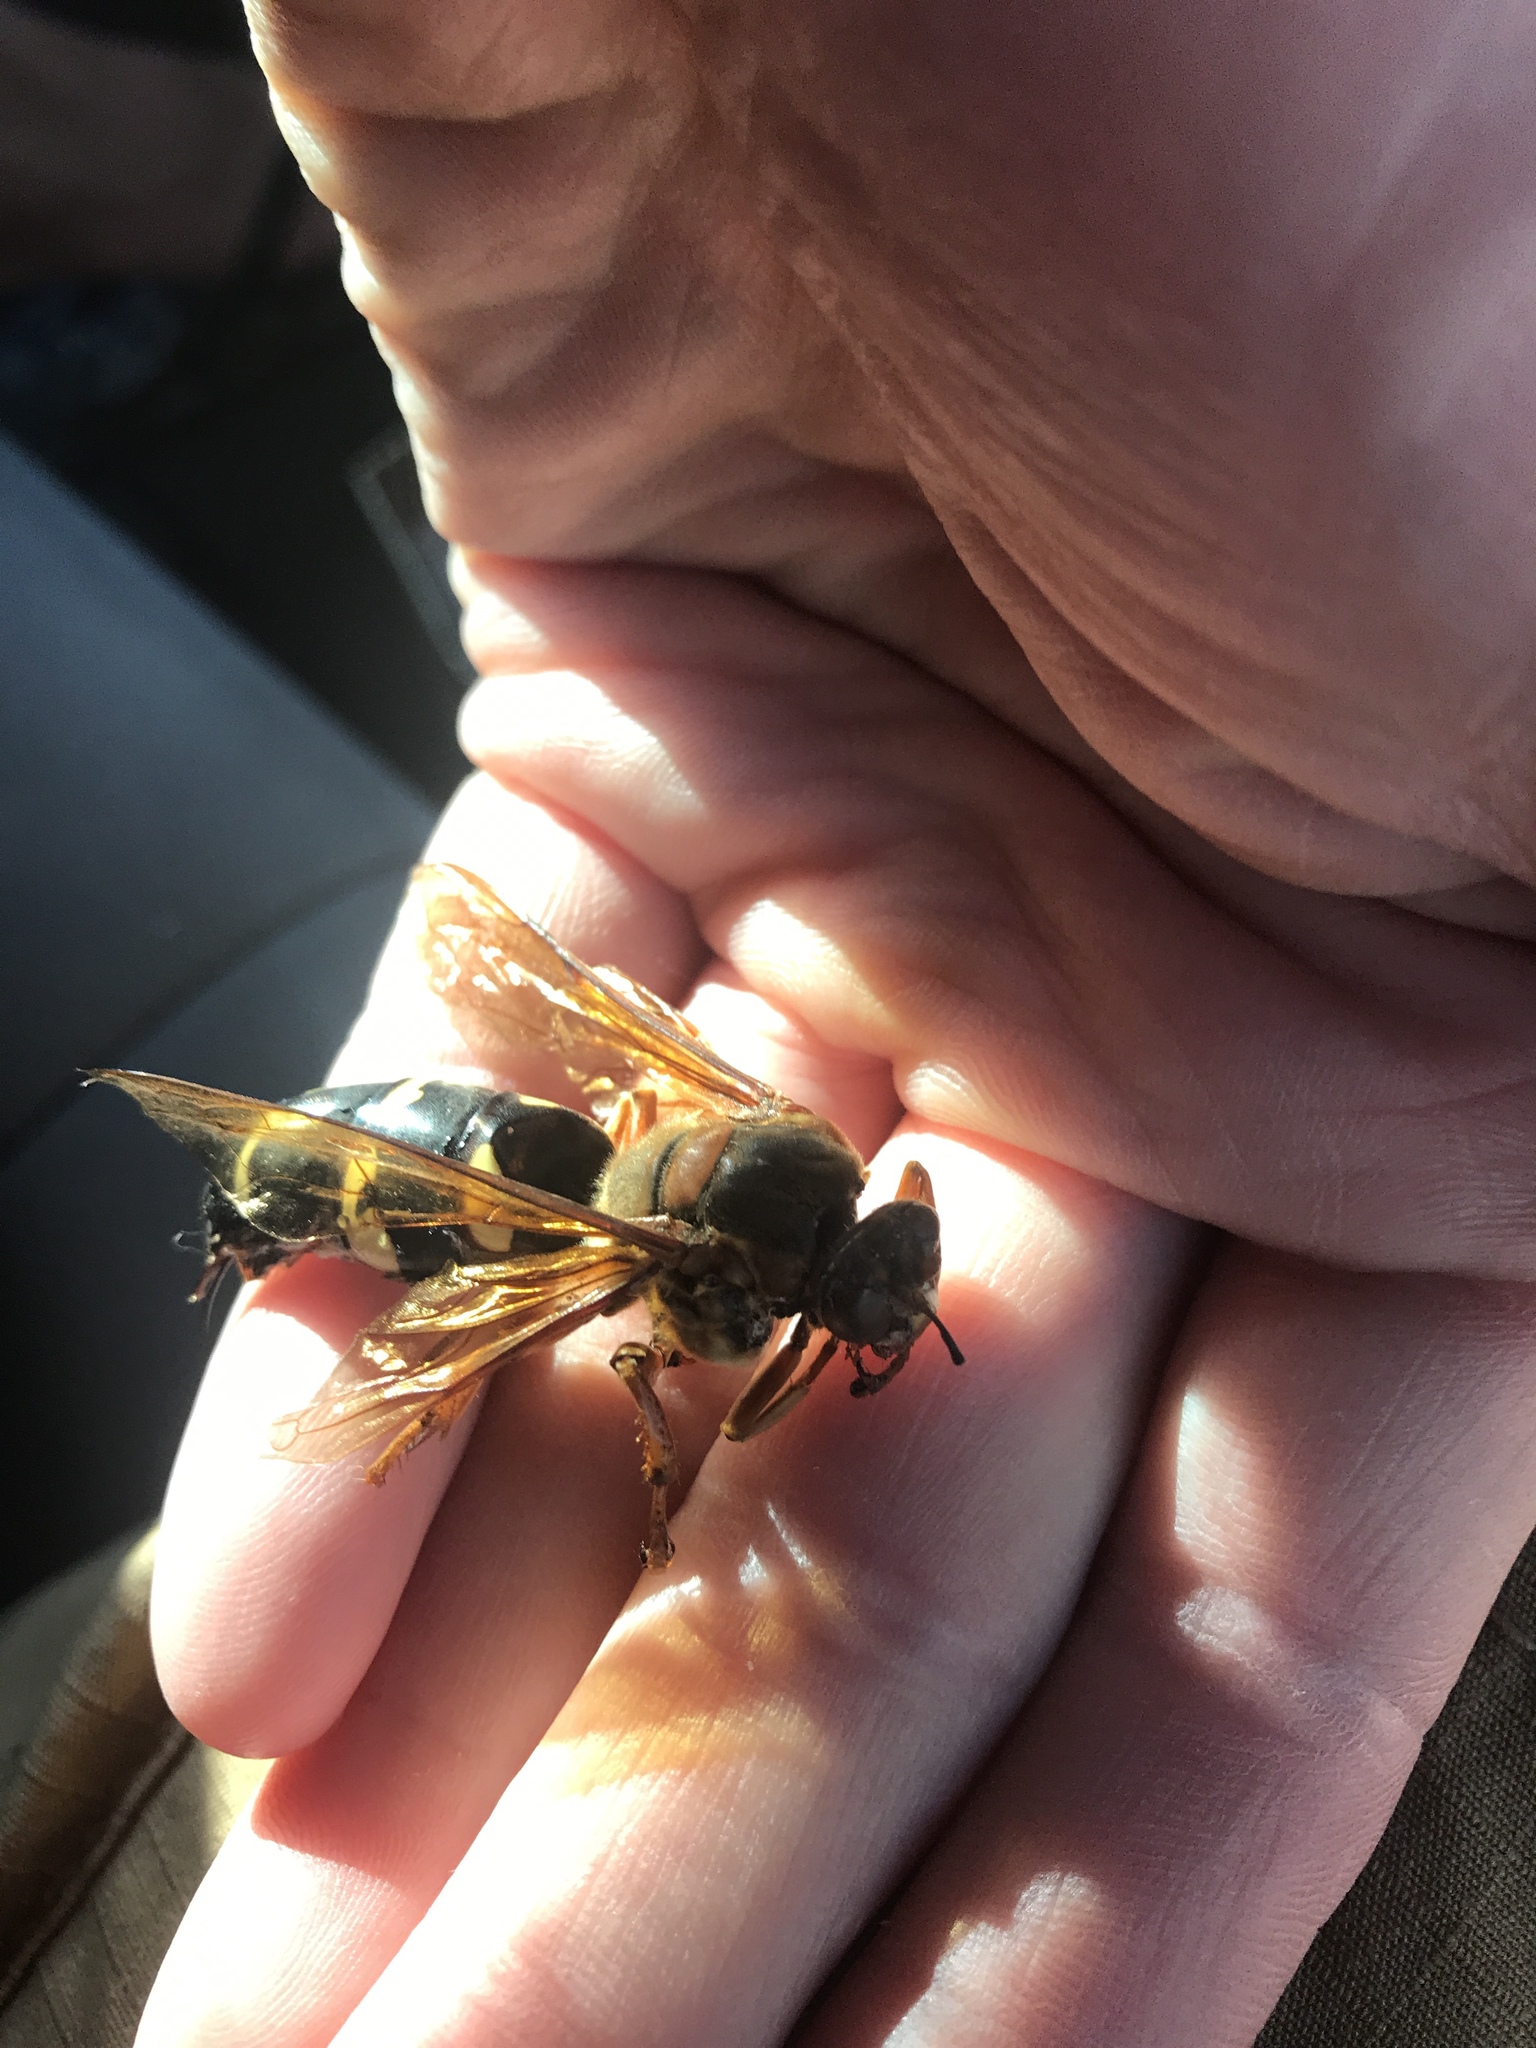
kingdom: Animalia
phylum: Arthropoda
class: Insecta
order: Hymenoptera
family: Crabronidae
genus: Sphecius
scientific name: Sphecius speciosus
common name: Cicada killer
